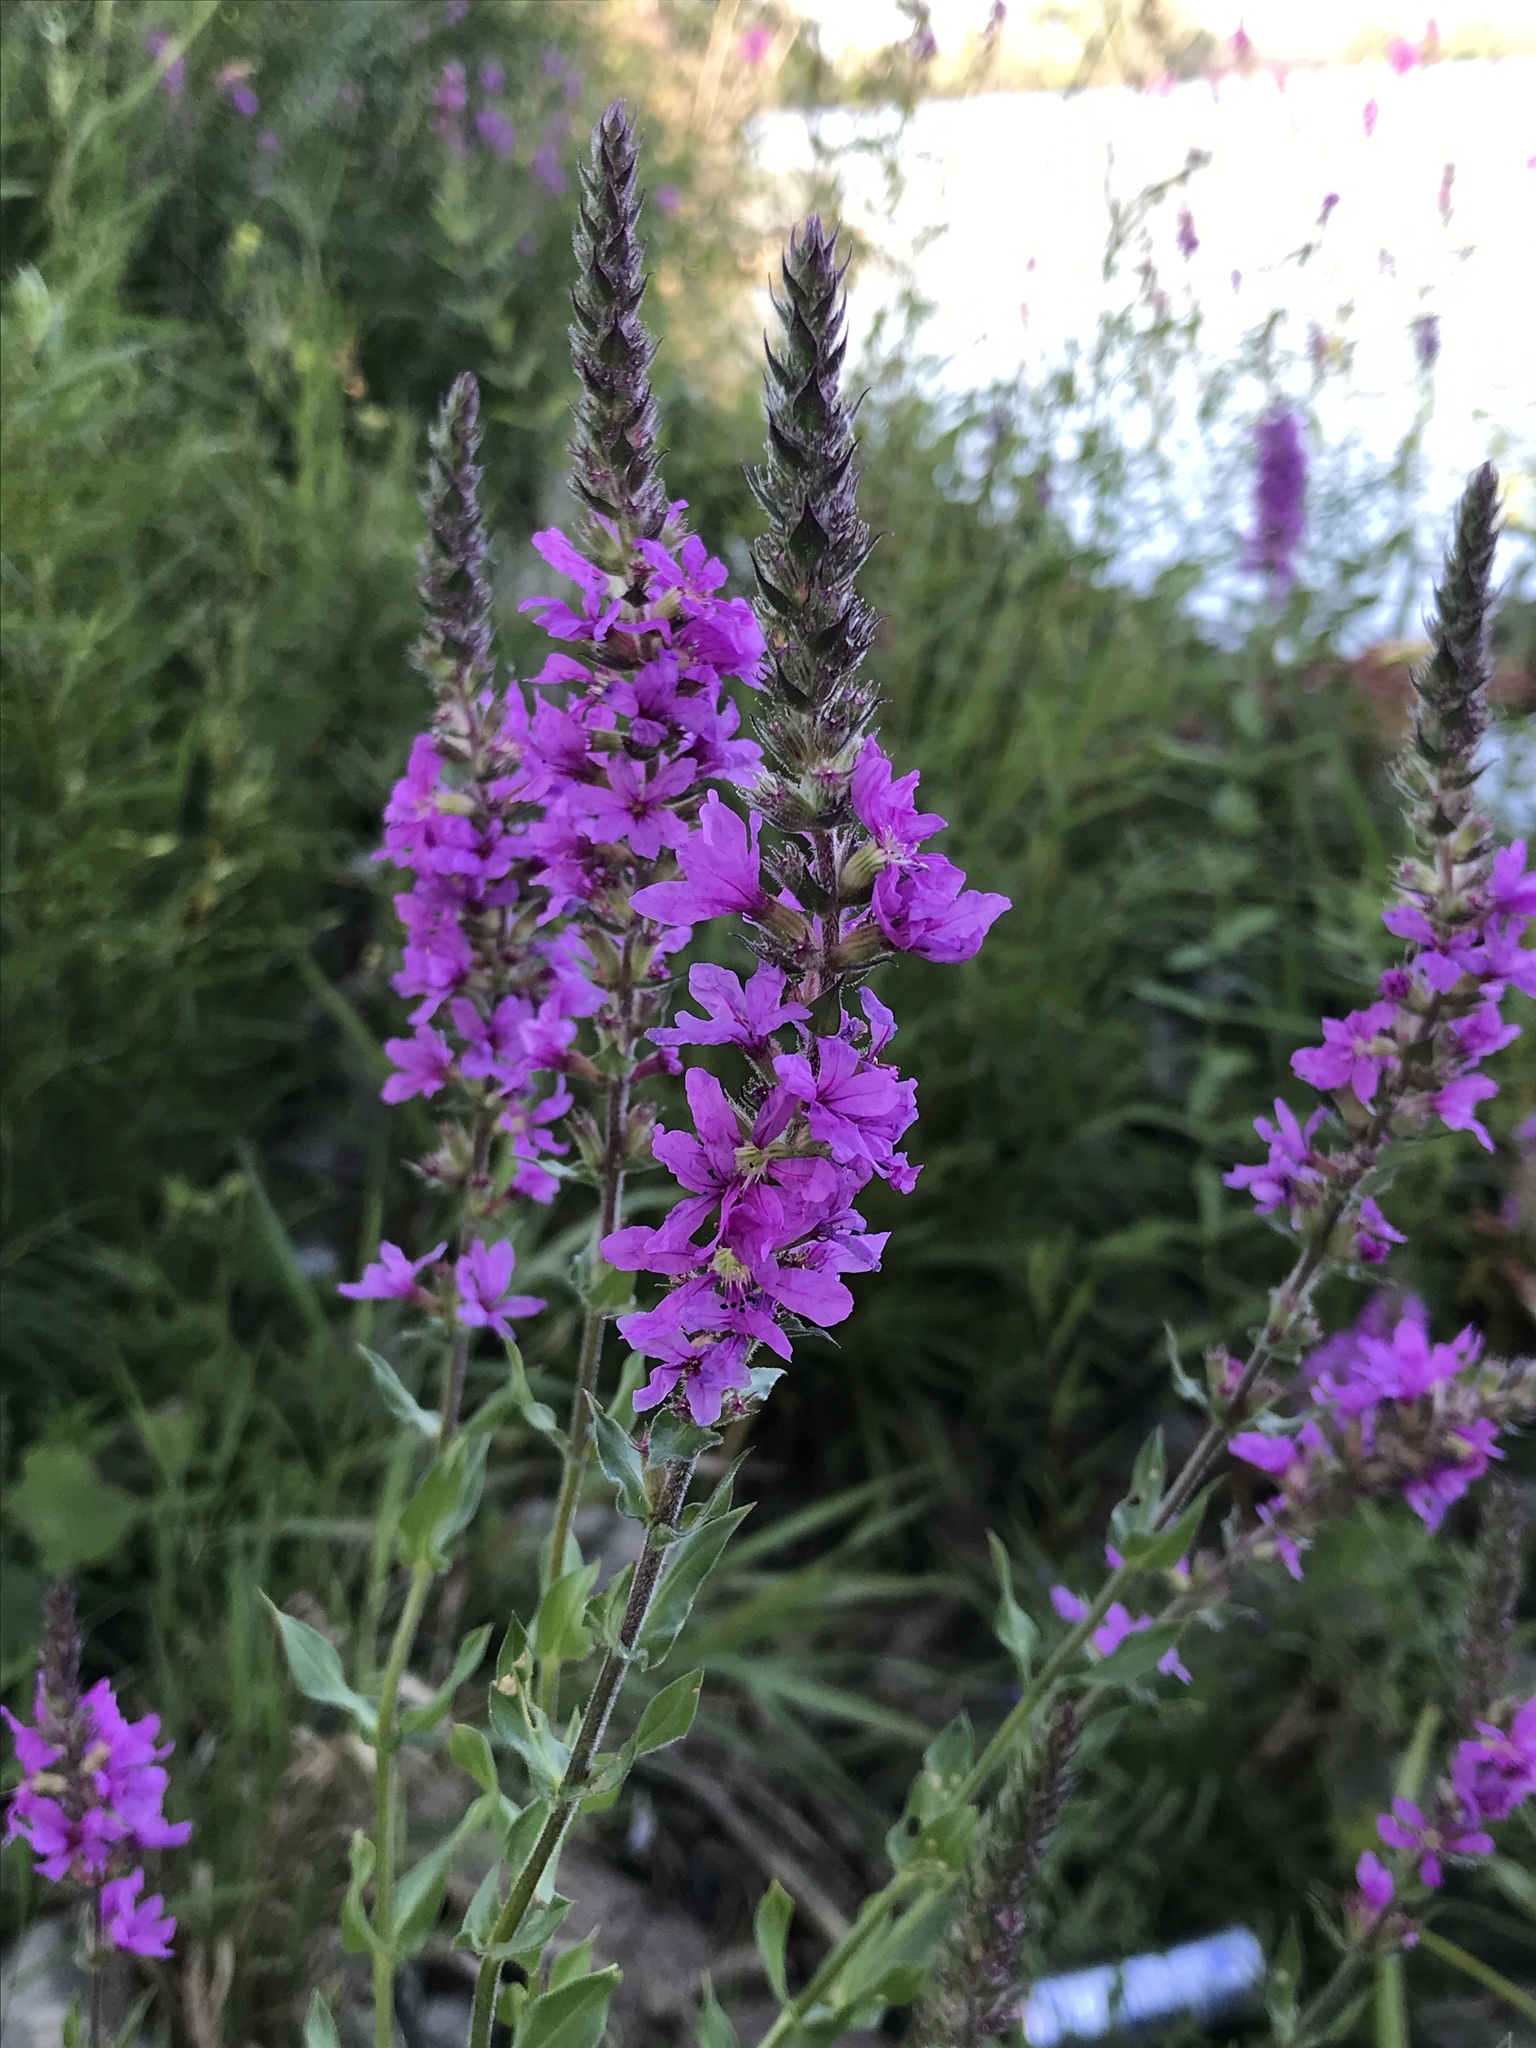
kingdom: Plantae
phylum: Tracheophyta
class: Magnoliopsida
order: Myrtales
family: Lythraceae
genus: Lythrum
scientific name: Lythrum salicaria
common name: Purple loosestrife
